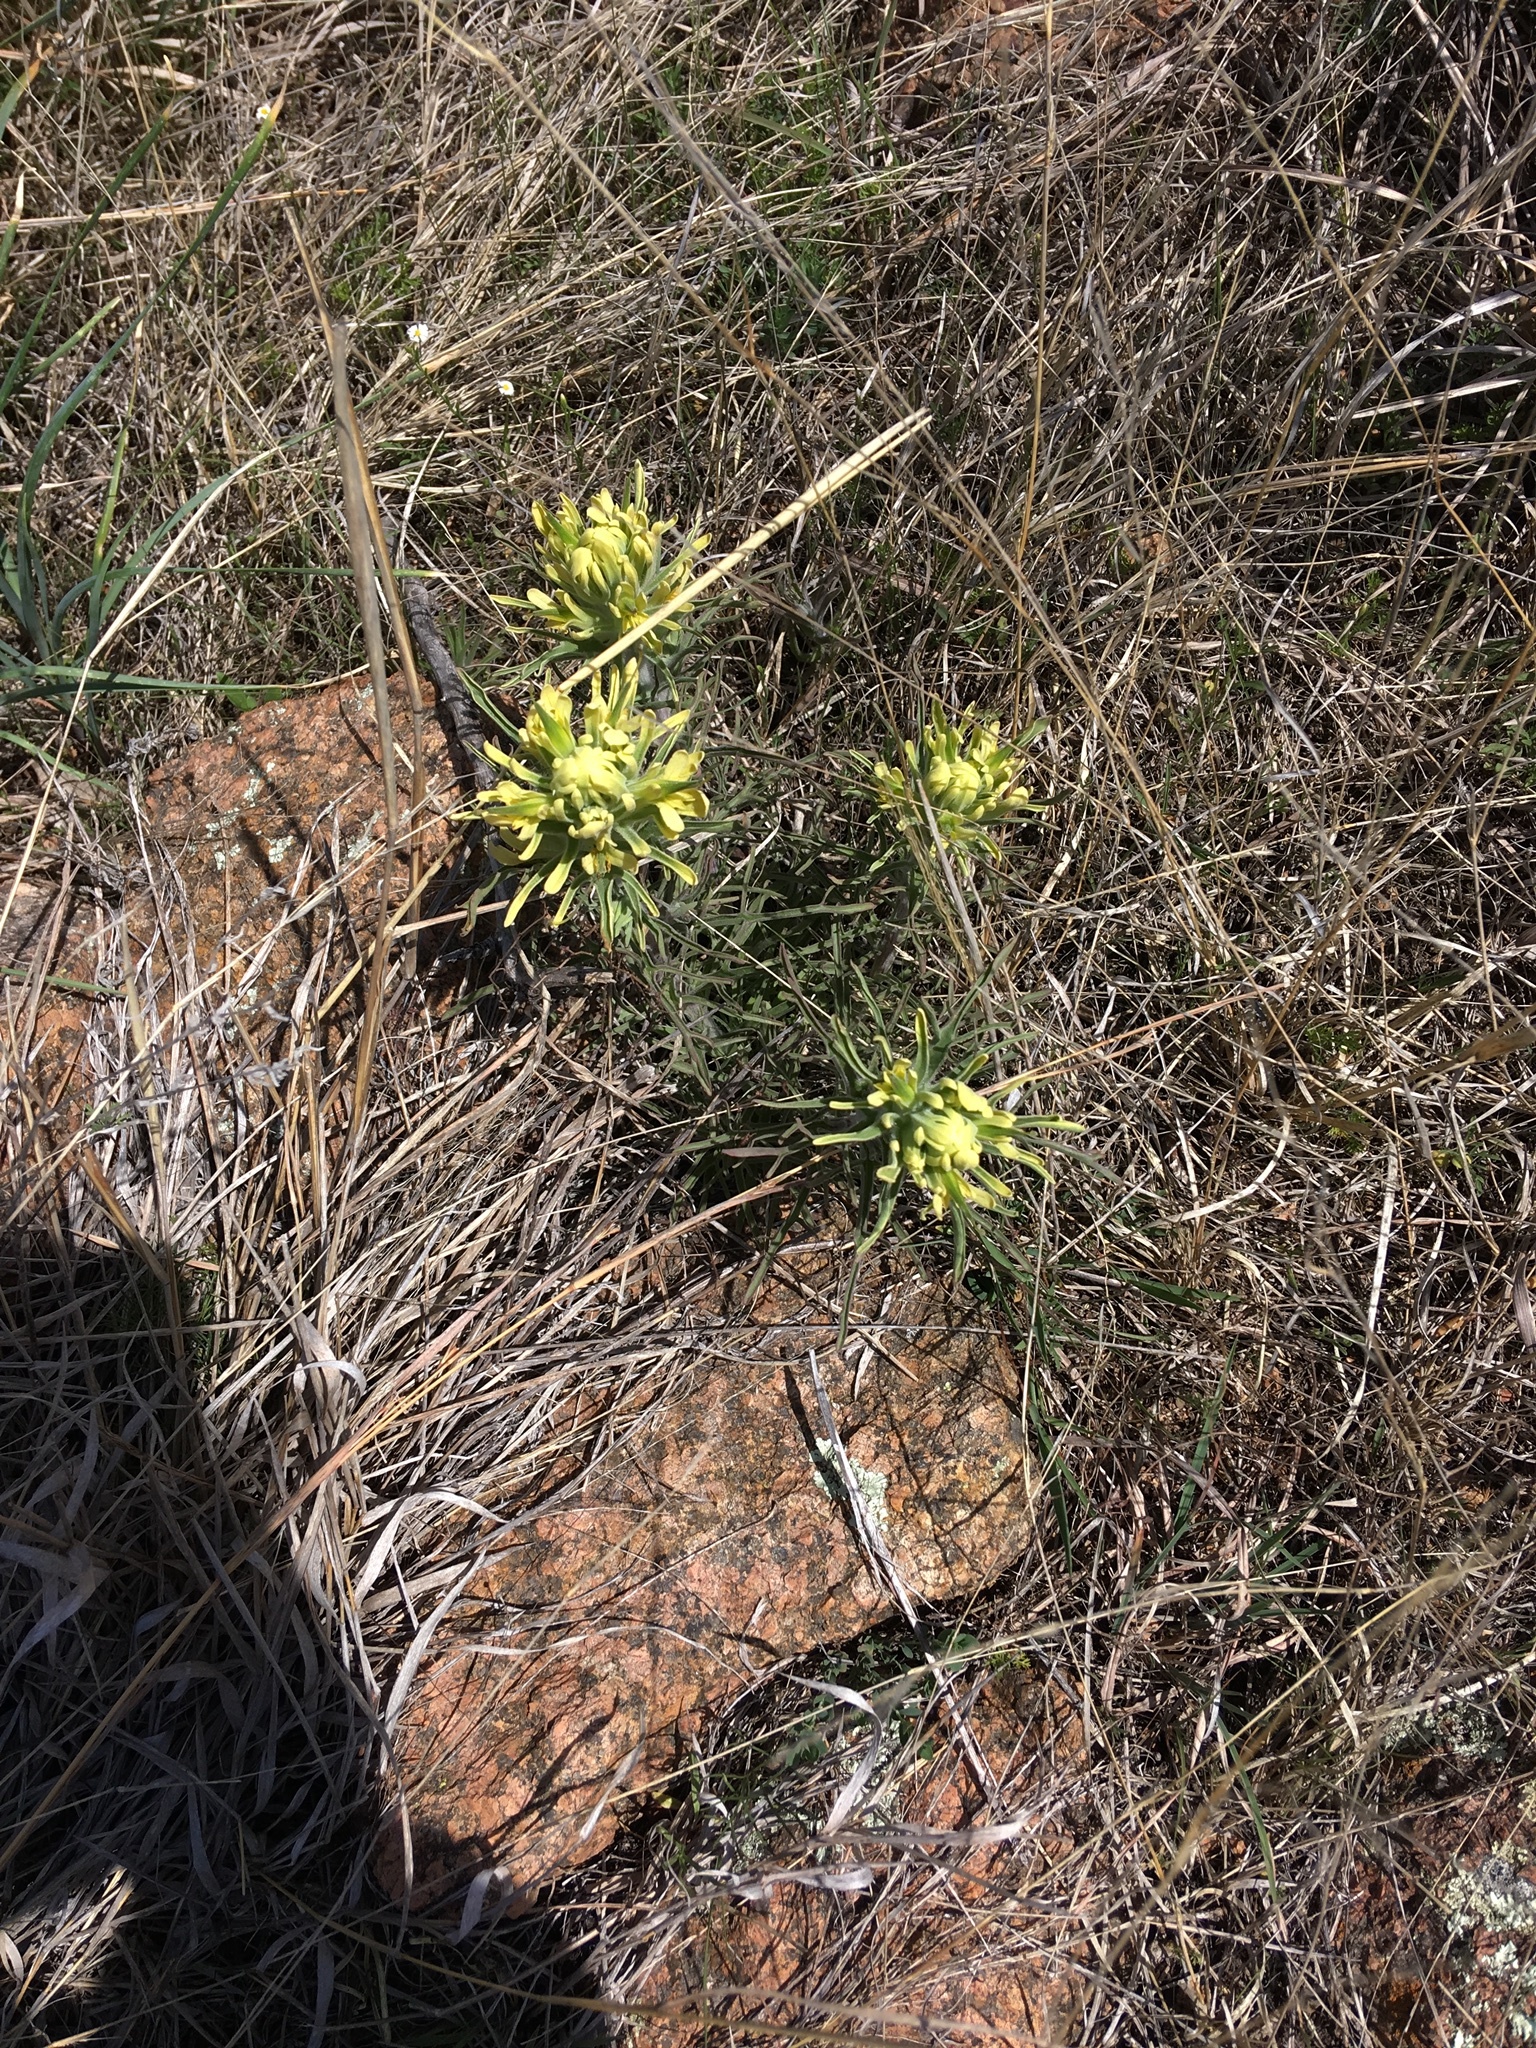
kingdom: Plantae
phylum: Tracheophyta
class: Magnoliopsida
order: Lamiales
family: Orobanchaceae
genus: Castilleja
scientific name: Castilleja citrina
